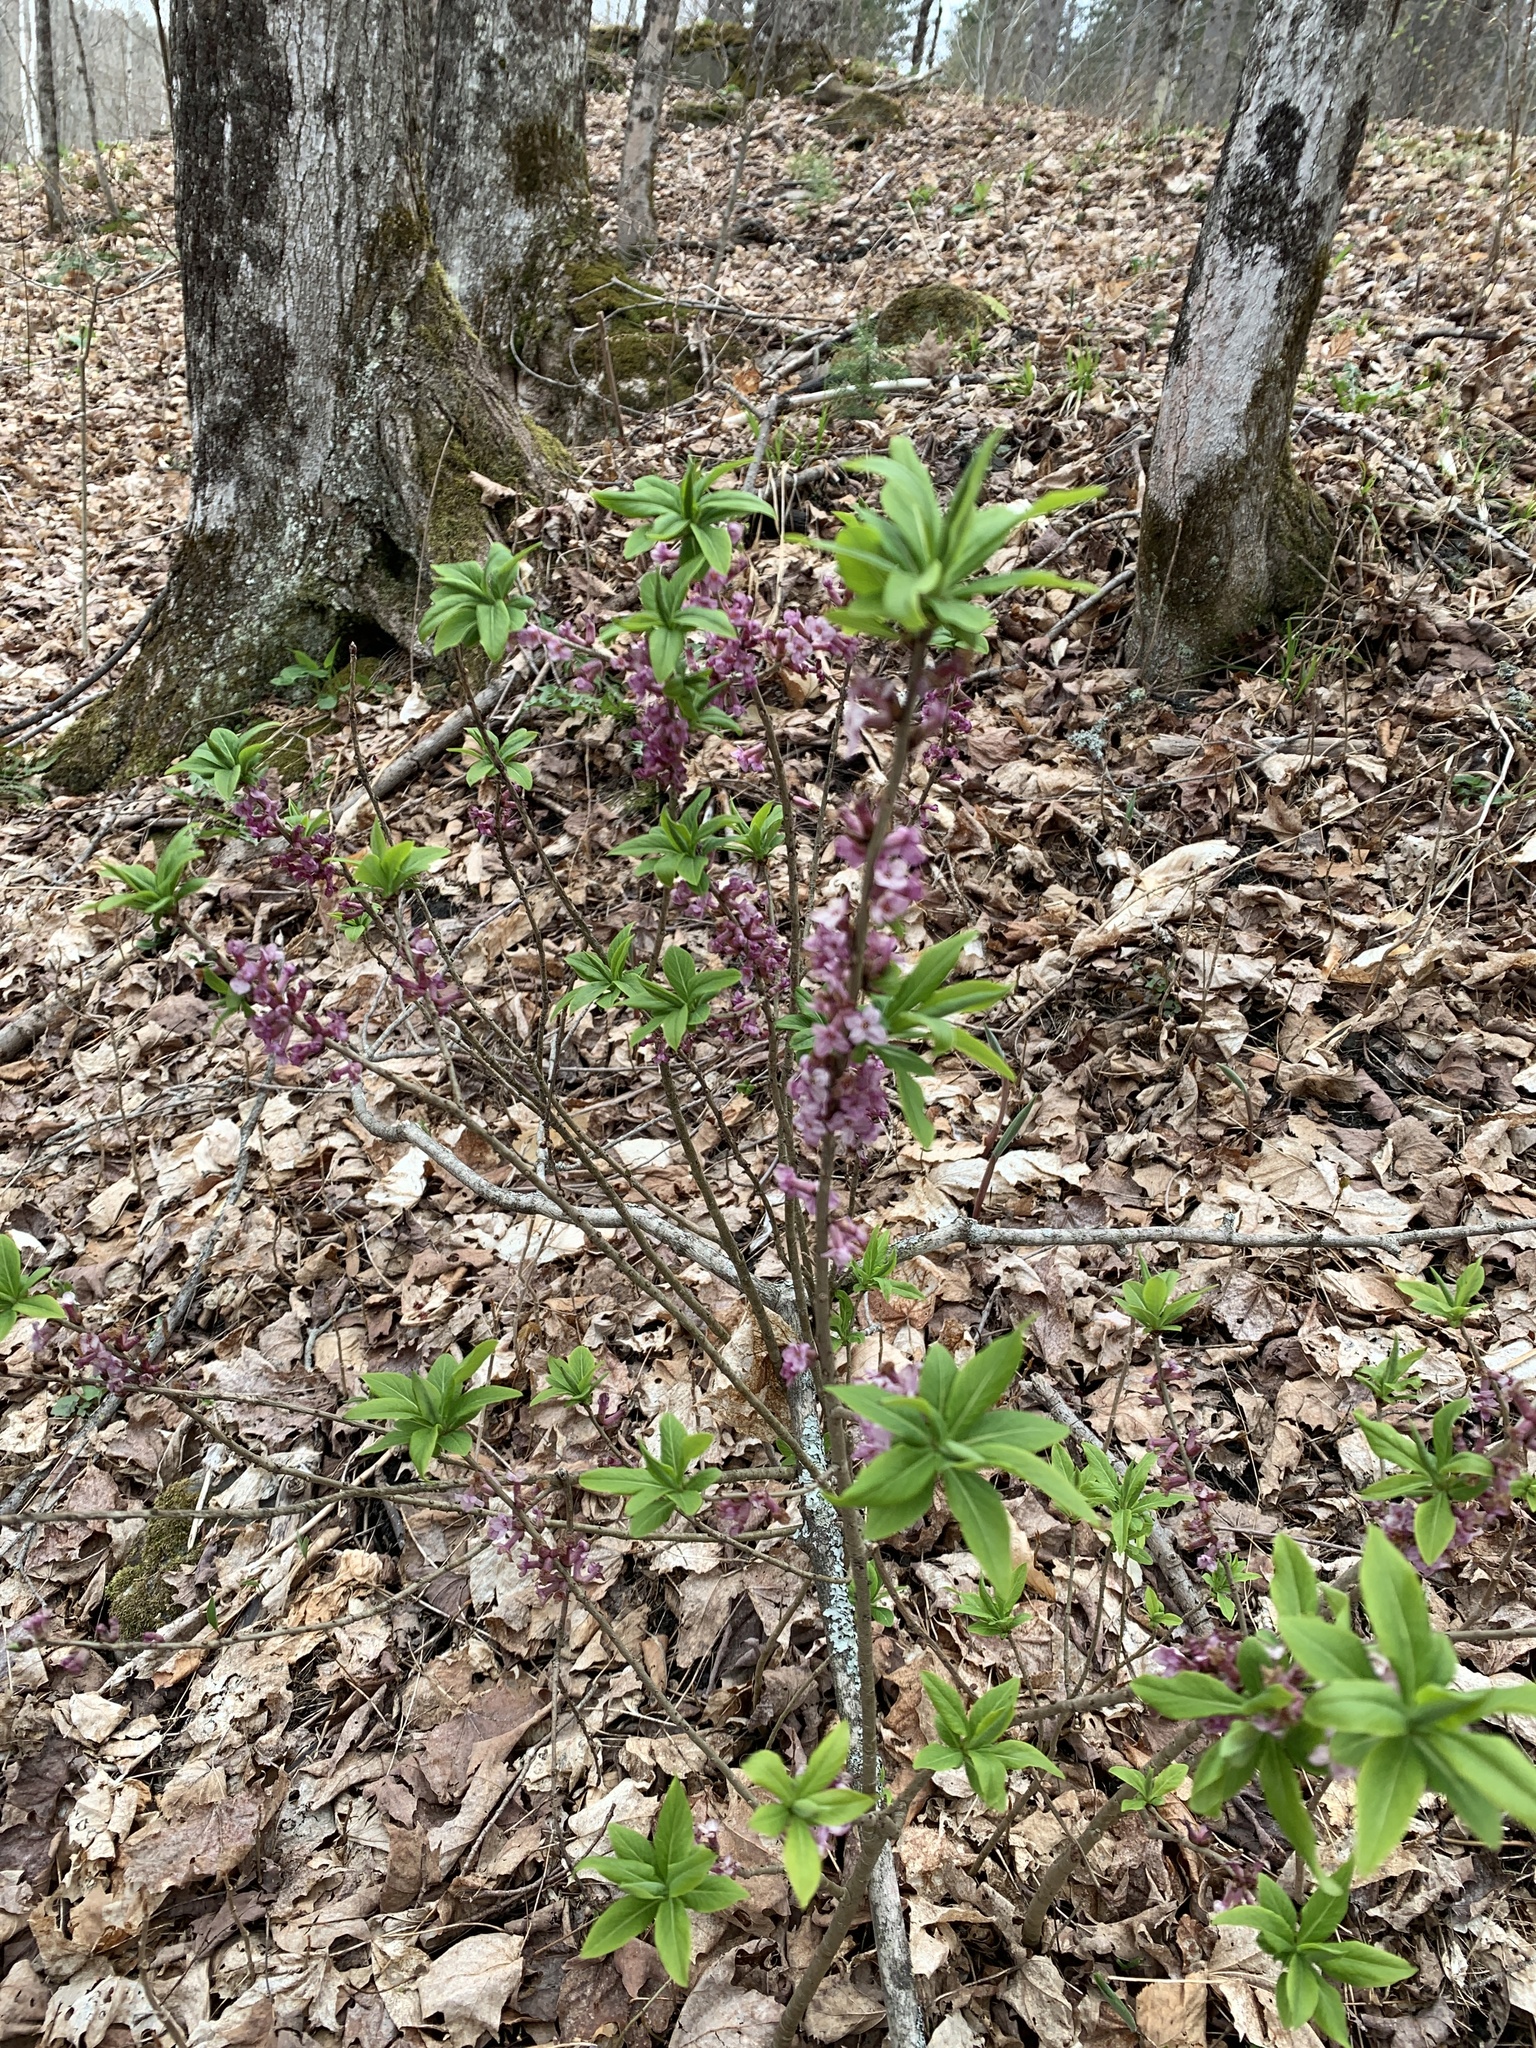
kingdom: Plantae
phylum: Tracheophyta
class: Magnoliopsida
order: Malvales
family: Thymelaeaceae
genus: Daphne
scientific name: Daphne mezereum
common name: Mezereon
